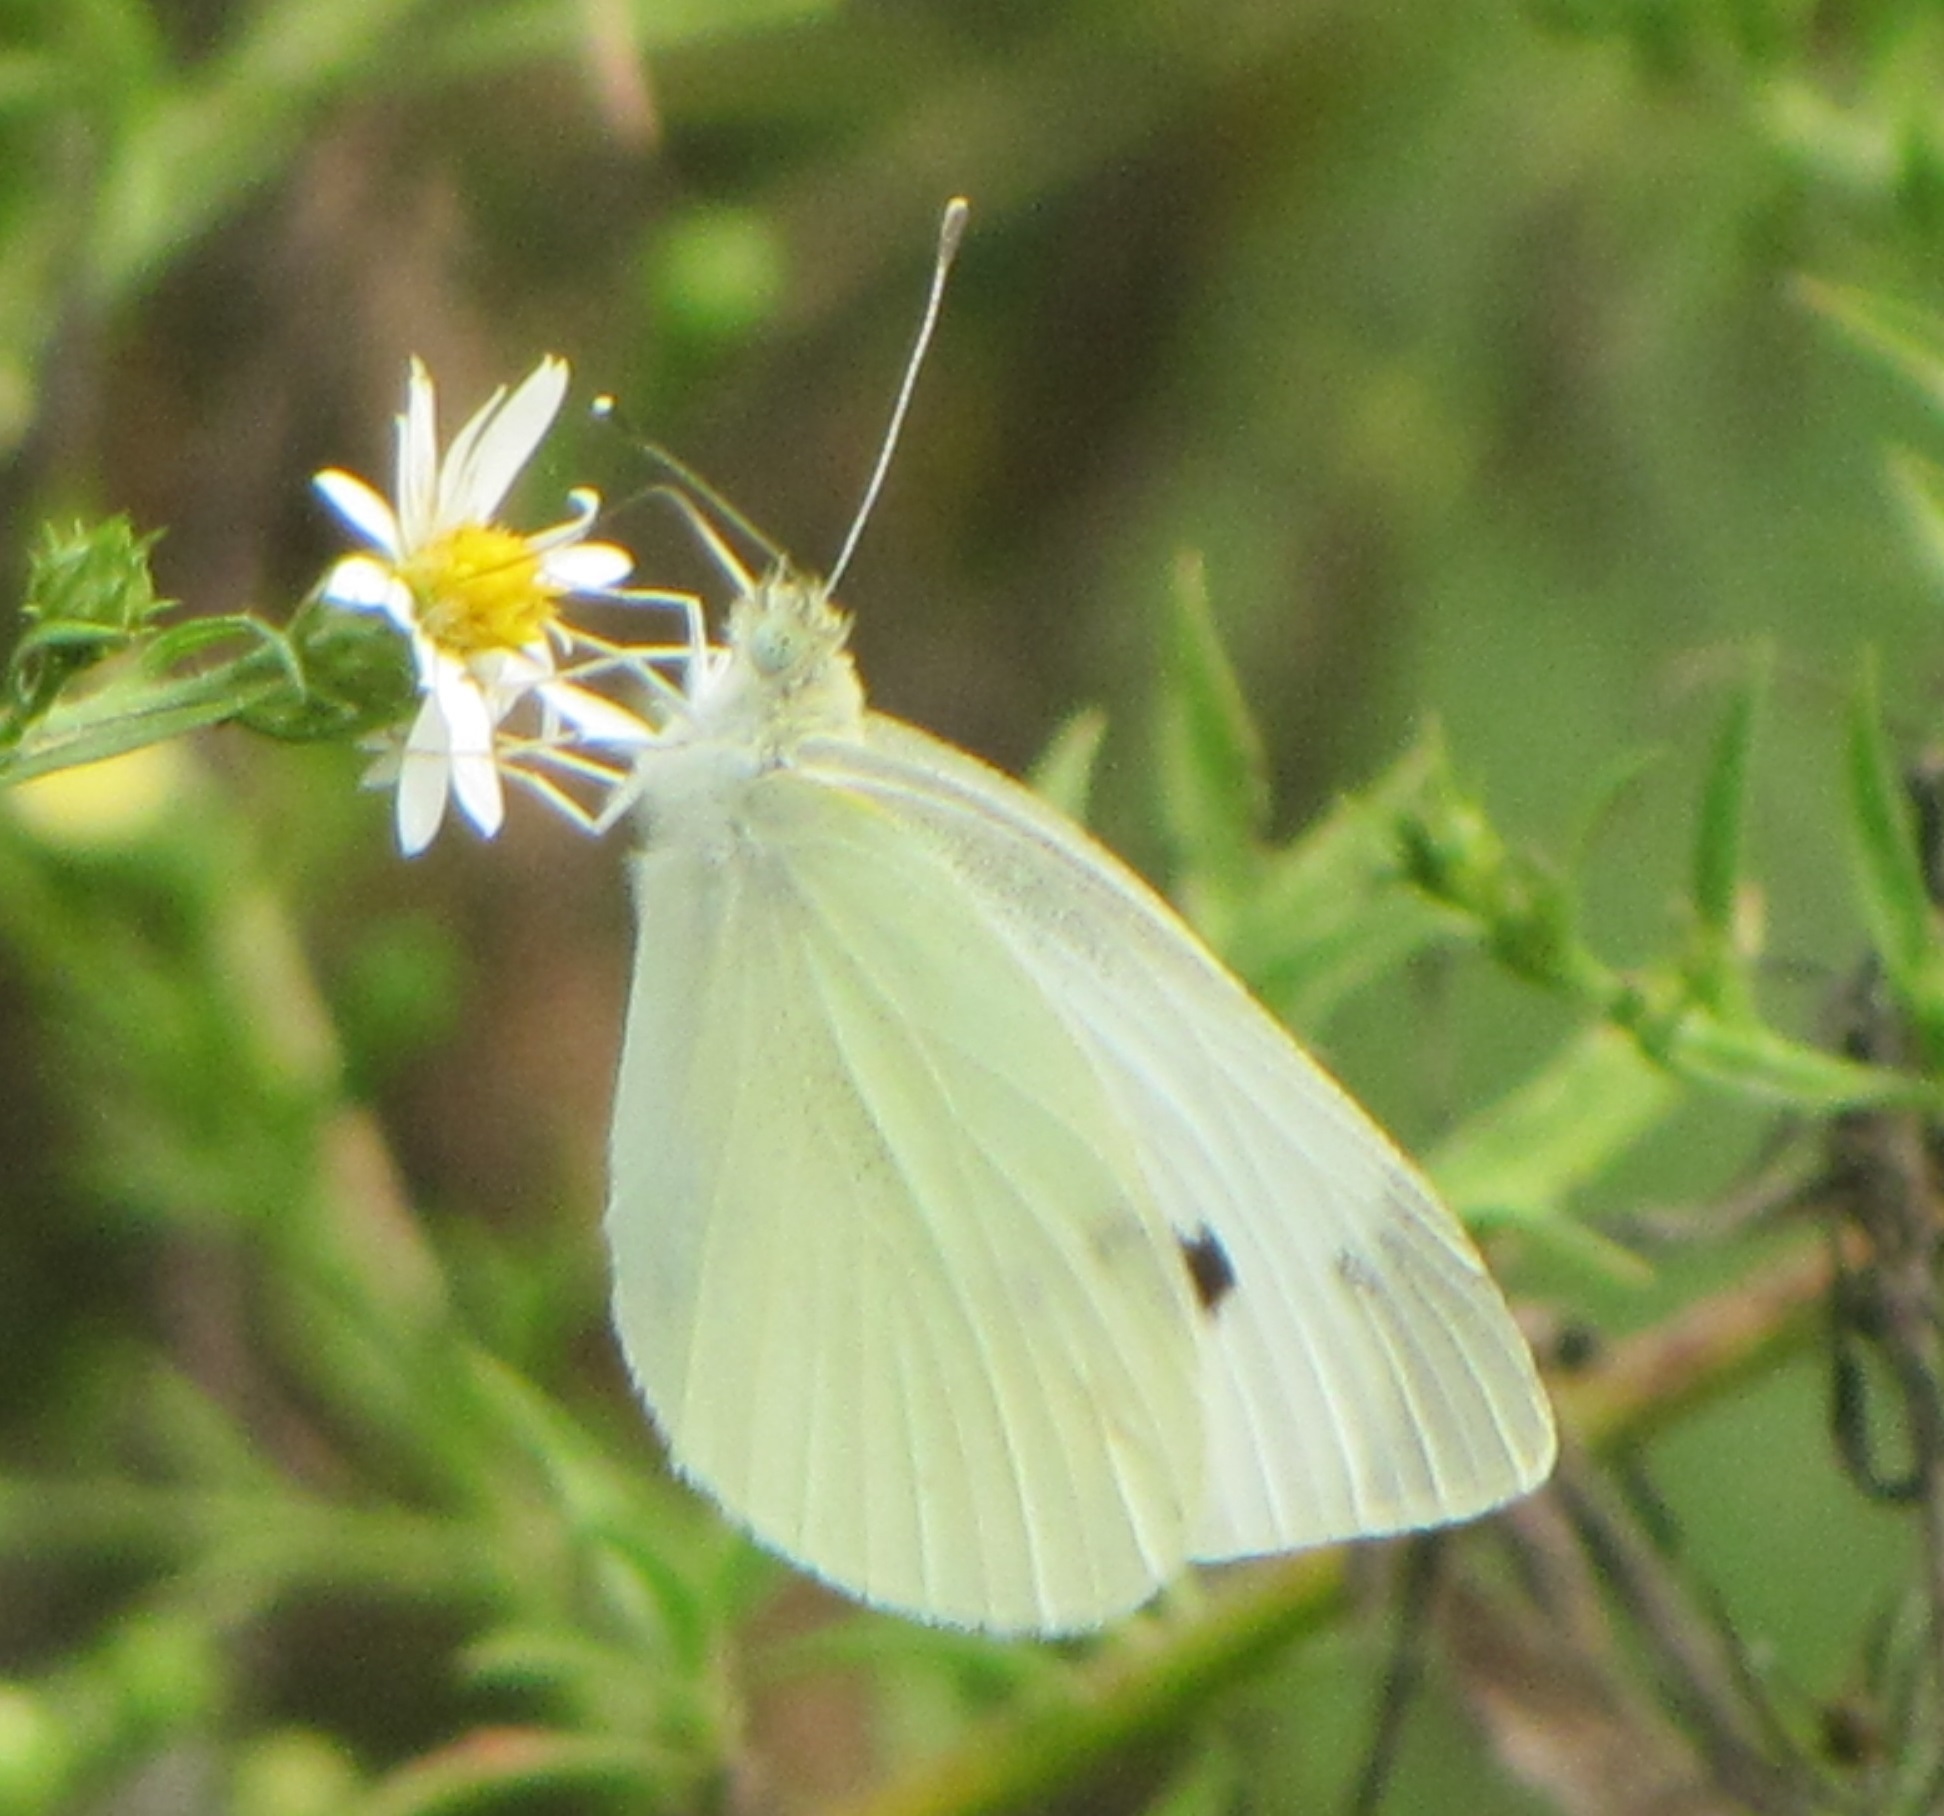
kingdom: Animalia
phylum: Arthropoda
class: Insecta
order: Lepidoptera
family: Pieridae
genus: Pieris
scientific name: Pieris rapae
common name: Small white
